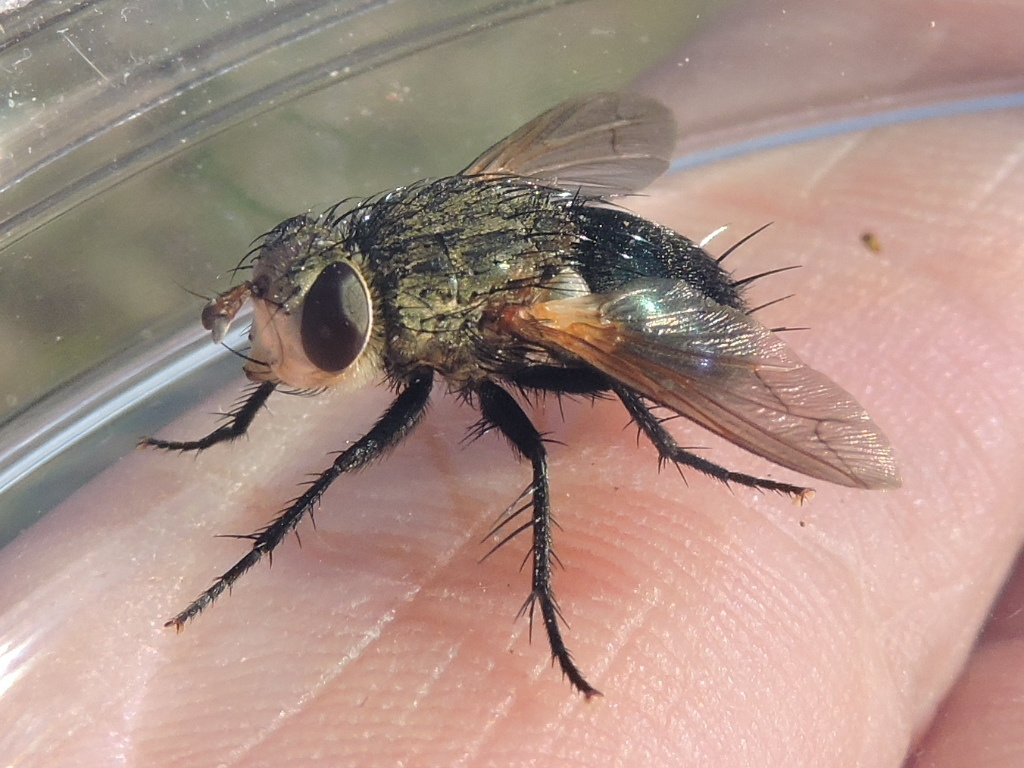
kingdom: Animalia
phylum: Arthropoda
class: Insecta
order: Diptera
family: Tachinidae
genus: Archytas
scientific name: Archytas apicifer
